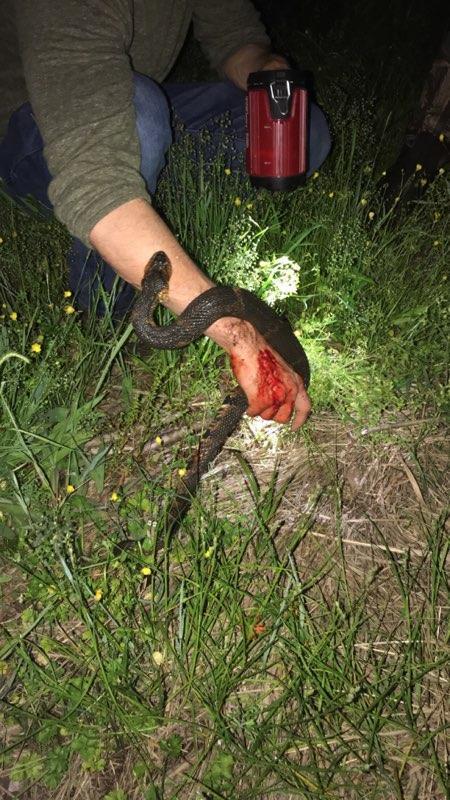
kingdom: Animalia
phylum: Chordata
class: Squamata
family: Colubridae
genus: Nerodia
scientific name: Nerodia fasciata
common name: Southern water snake
